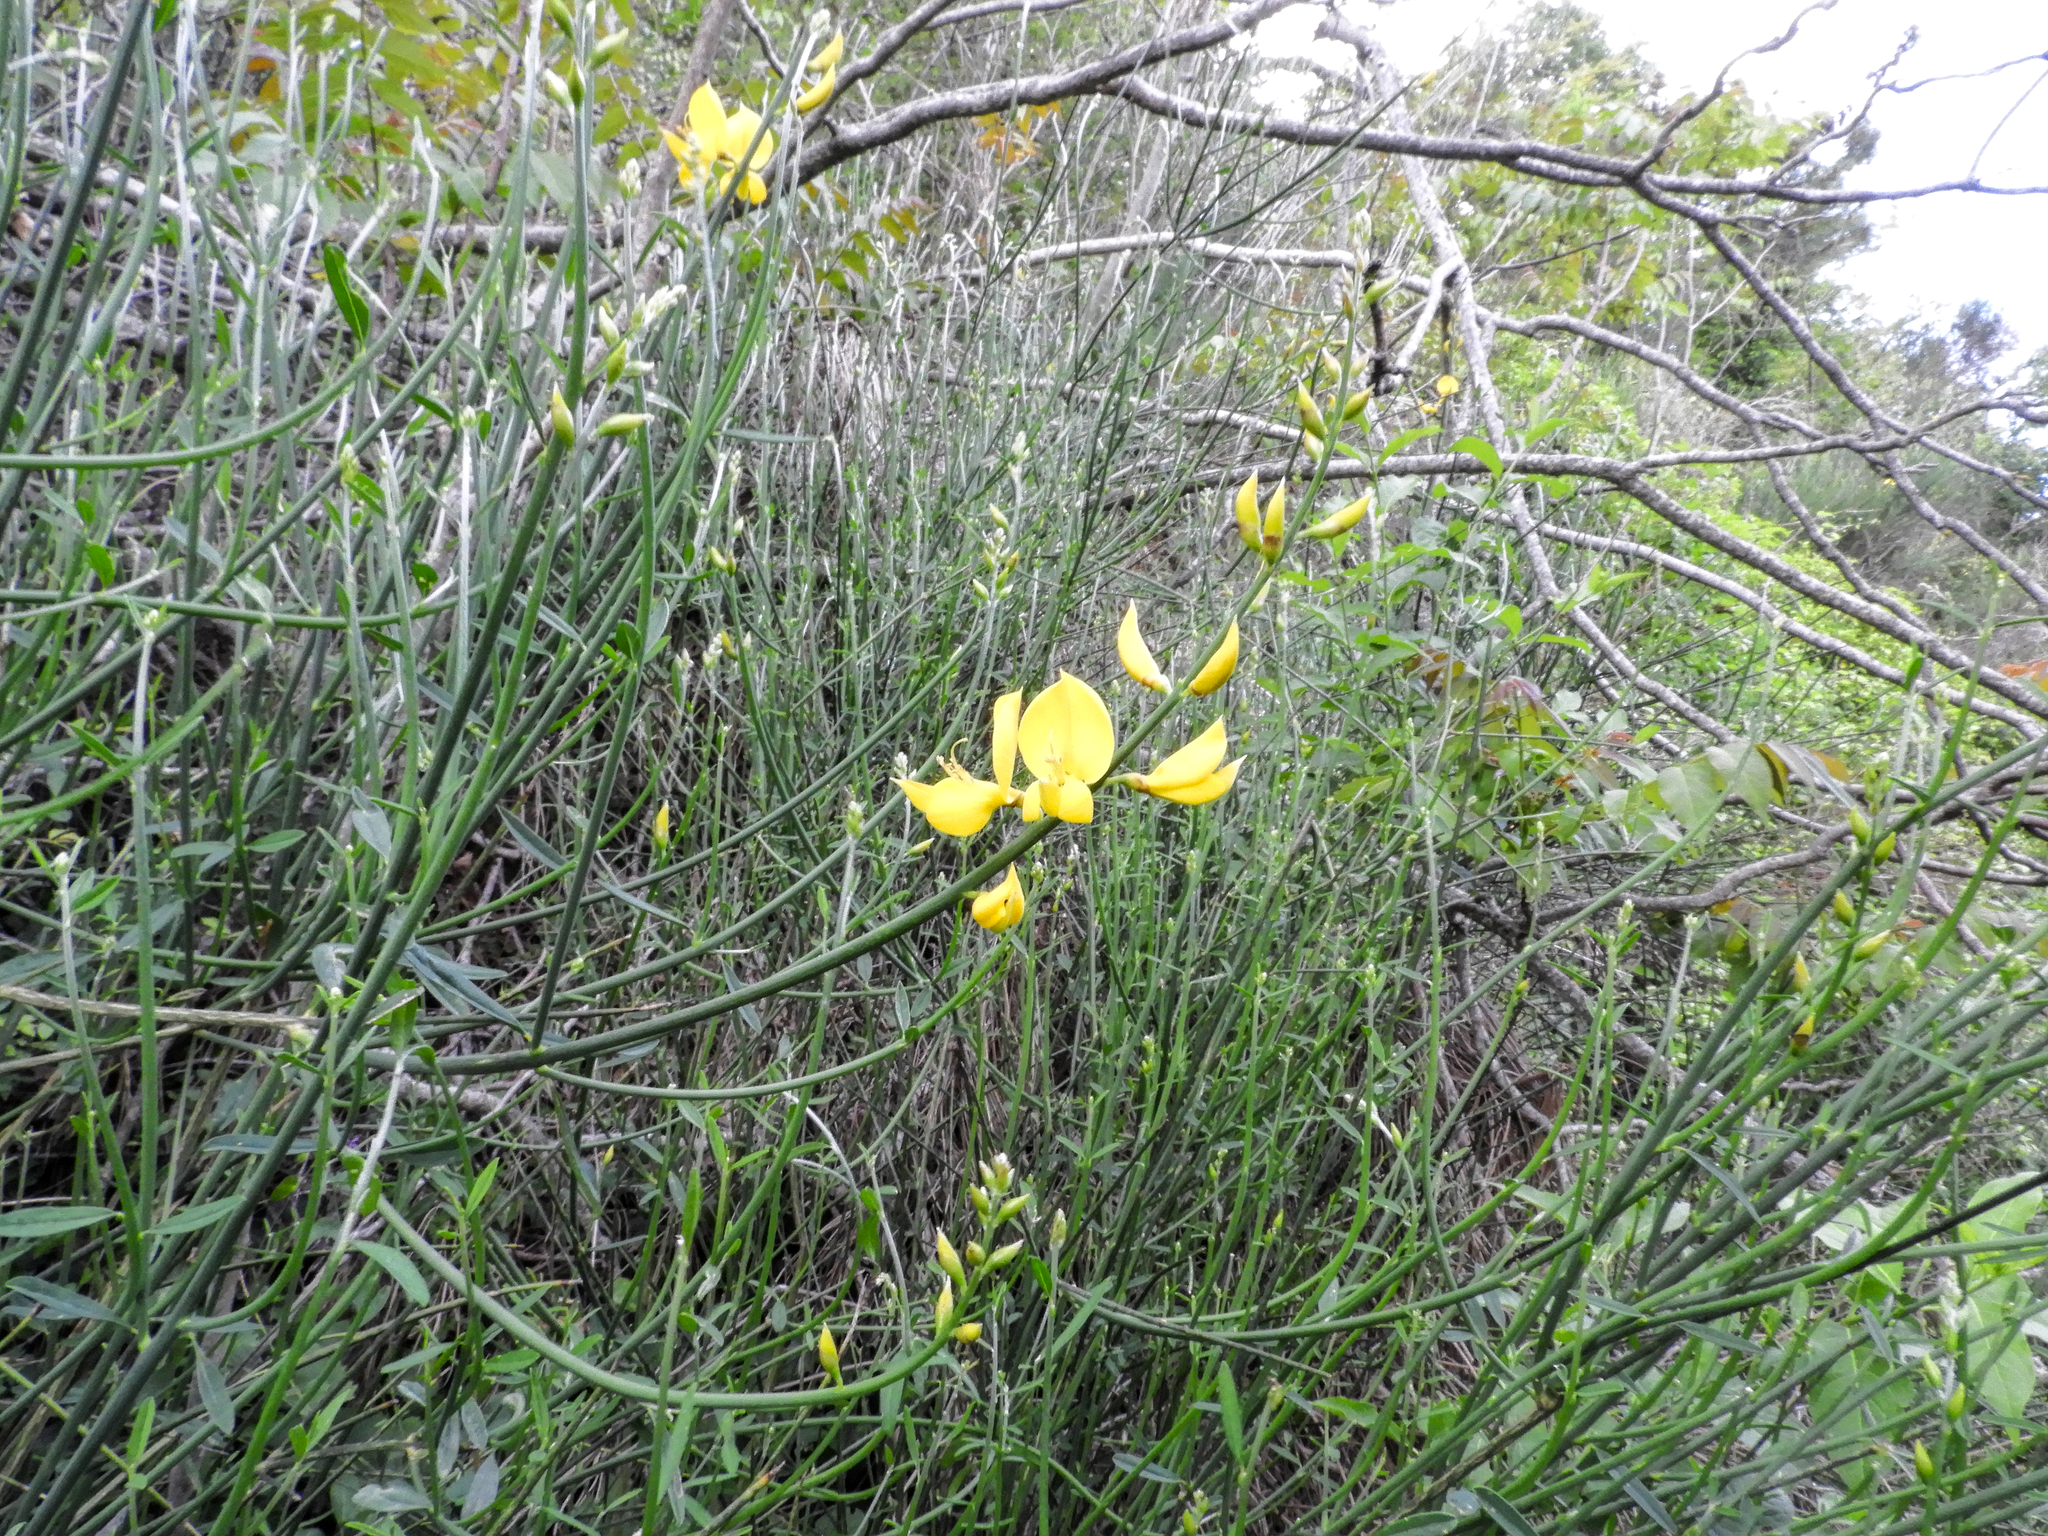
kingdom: Plantae
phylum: Tracheophyta
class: Magnoliopsida
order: Fabales
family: Fabaceae
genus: Spartium
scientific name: Spartium junceum
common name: Spanish broom
